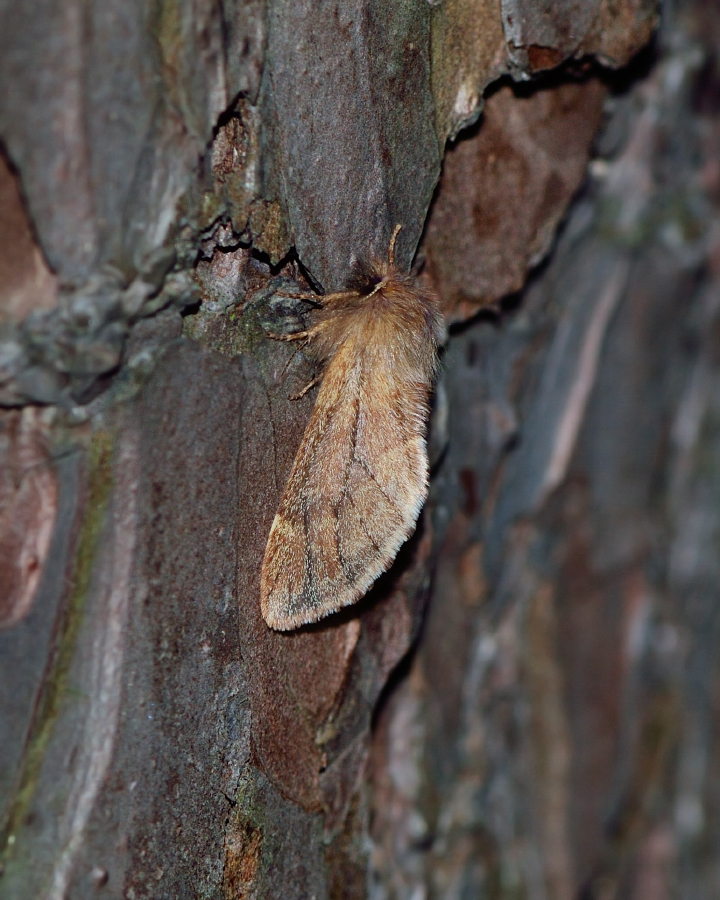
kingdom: Animalia
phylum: Arthropoda
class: Insecta
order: Lepidoptera
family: Notodontidae
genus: Ptilophora
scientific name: Ptilophora plumigera
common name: Plumed prominent
